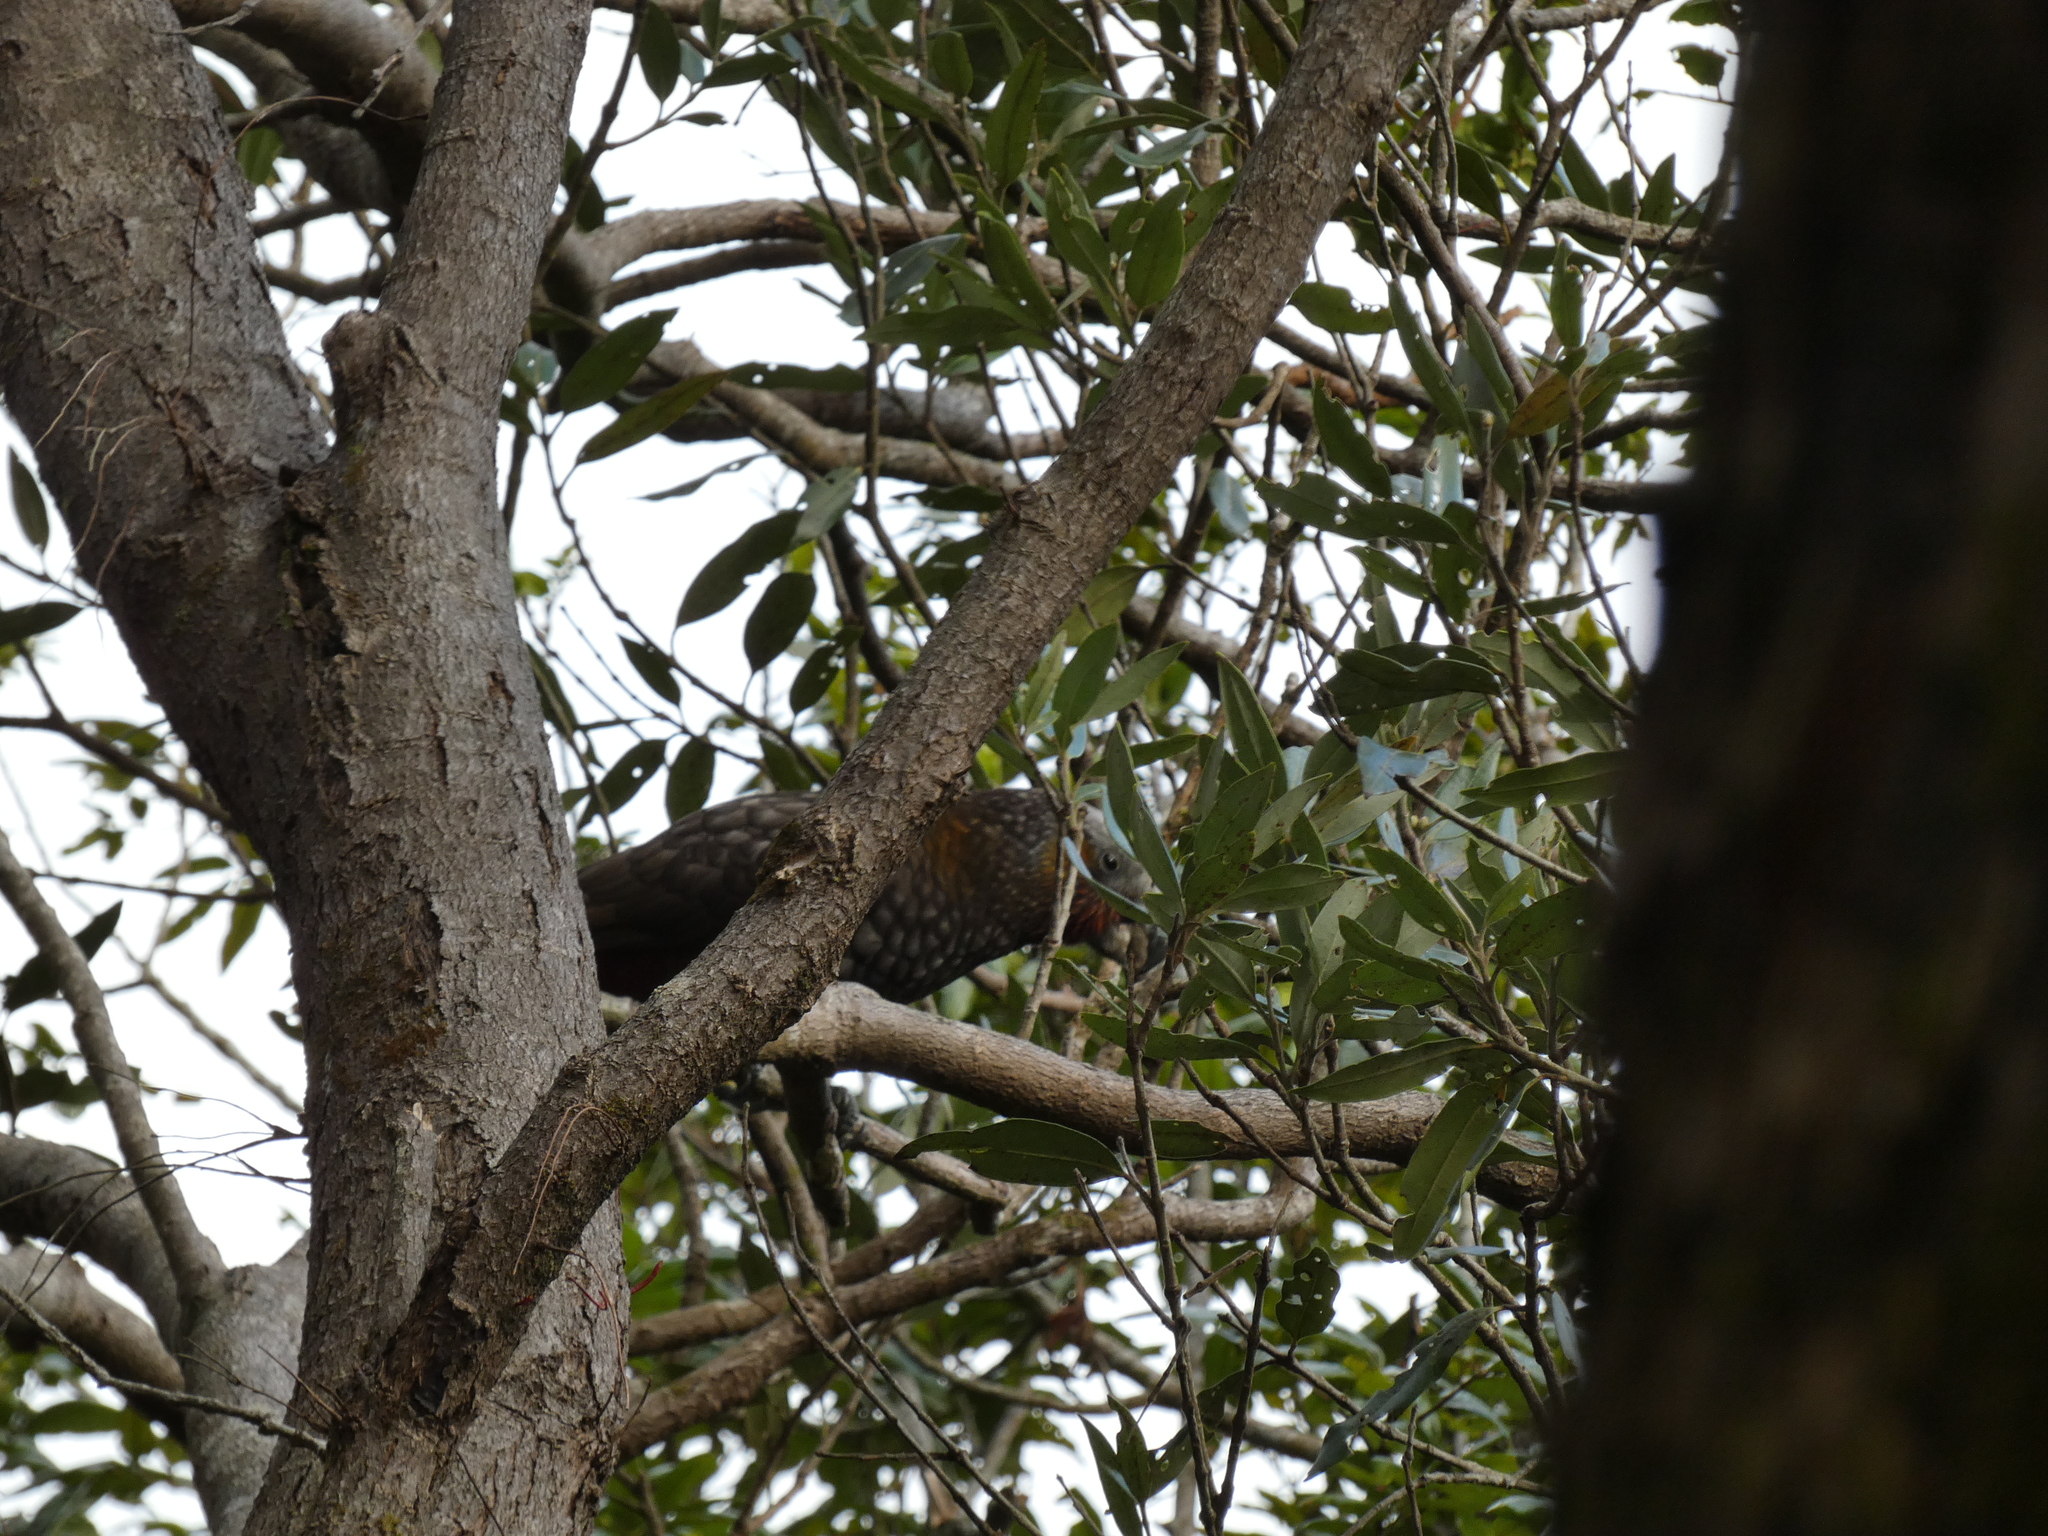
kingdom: Animalia
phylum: Chordata
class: Aves
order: Psittaciformes
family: Psittacidae
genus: Nestor
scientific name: Nestor meridionalis
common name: New zealand kaka
